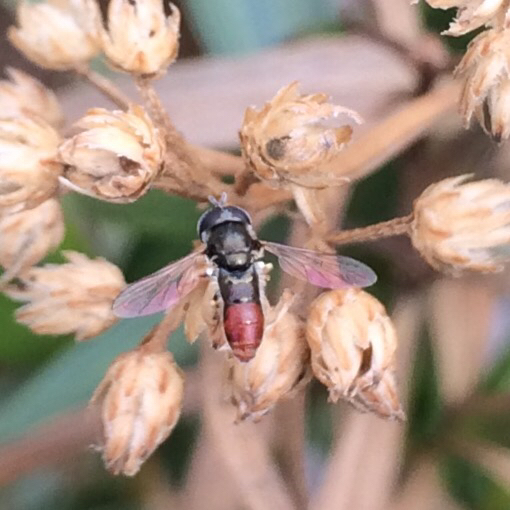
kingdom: Animalia
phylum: Arthropoda
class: Insecta
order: Diptera
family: Syrphidae
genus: Paragus
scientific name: Paragus haemorrhous
